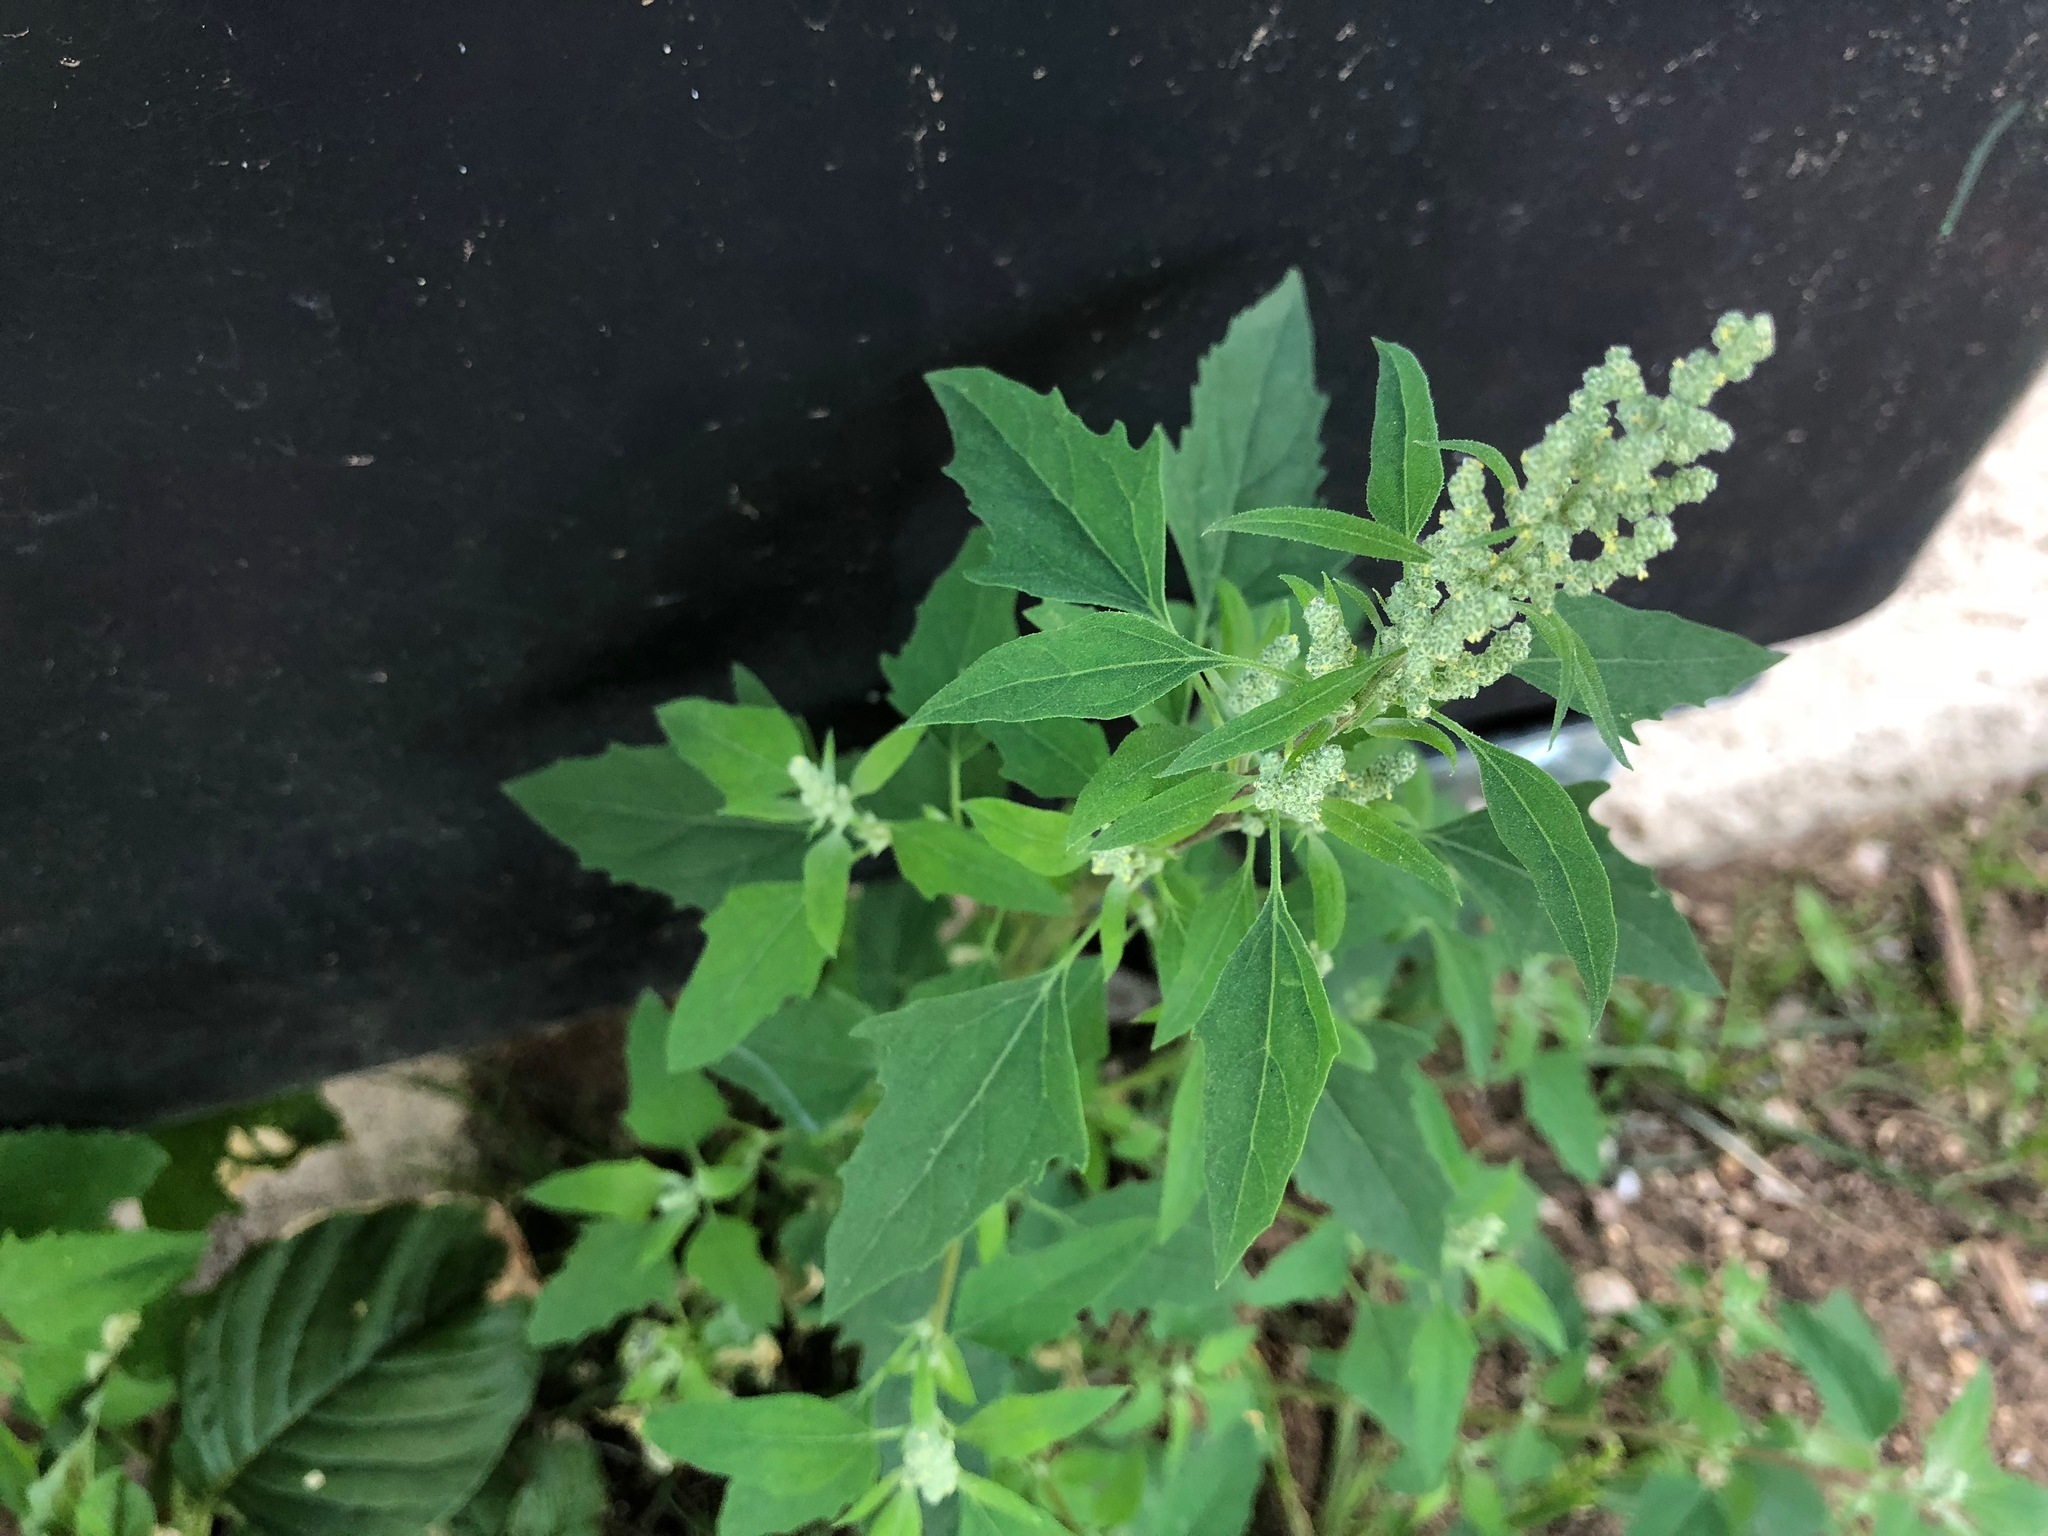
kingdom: Plantae
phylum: Tracheophyta
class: Magnoliopsida
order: Caryophyllales
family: Amaranthaceae
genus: Chenopodium
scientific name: Chenopodium album
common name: Fat-hen
